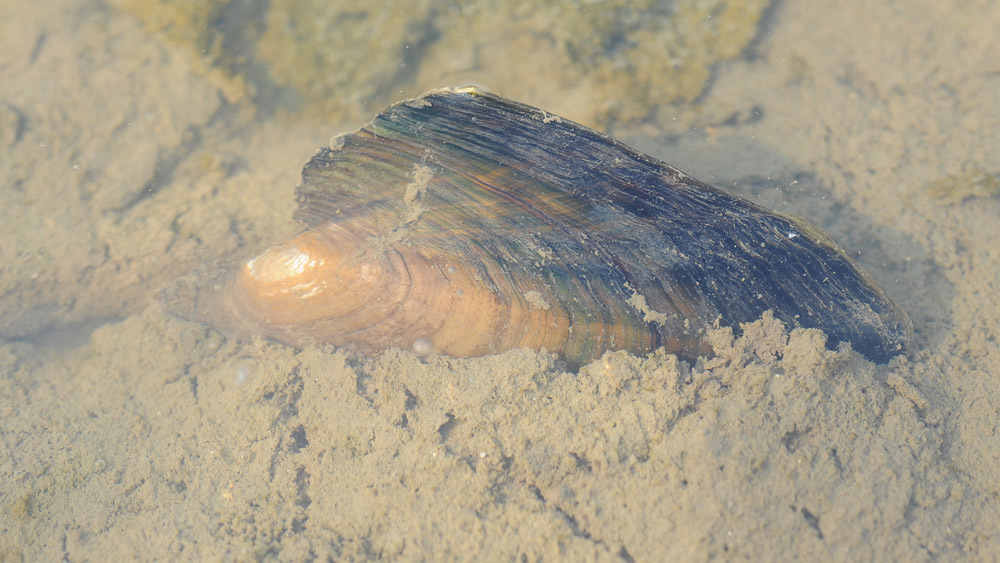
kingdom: Animalia
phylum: Mollusca
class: Bivalvia
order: Unionida
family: Unionidae
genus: Cristaria
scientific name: Cristaria plicata
